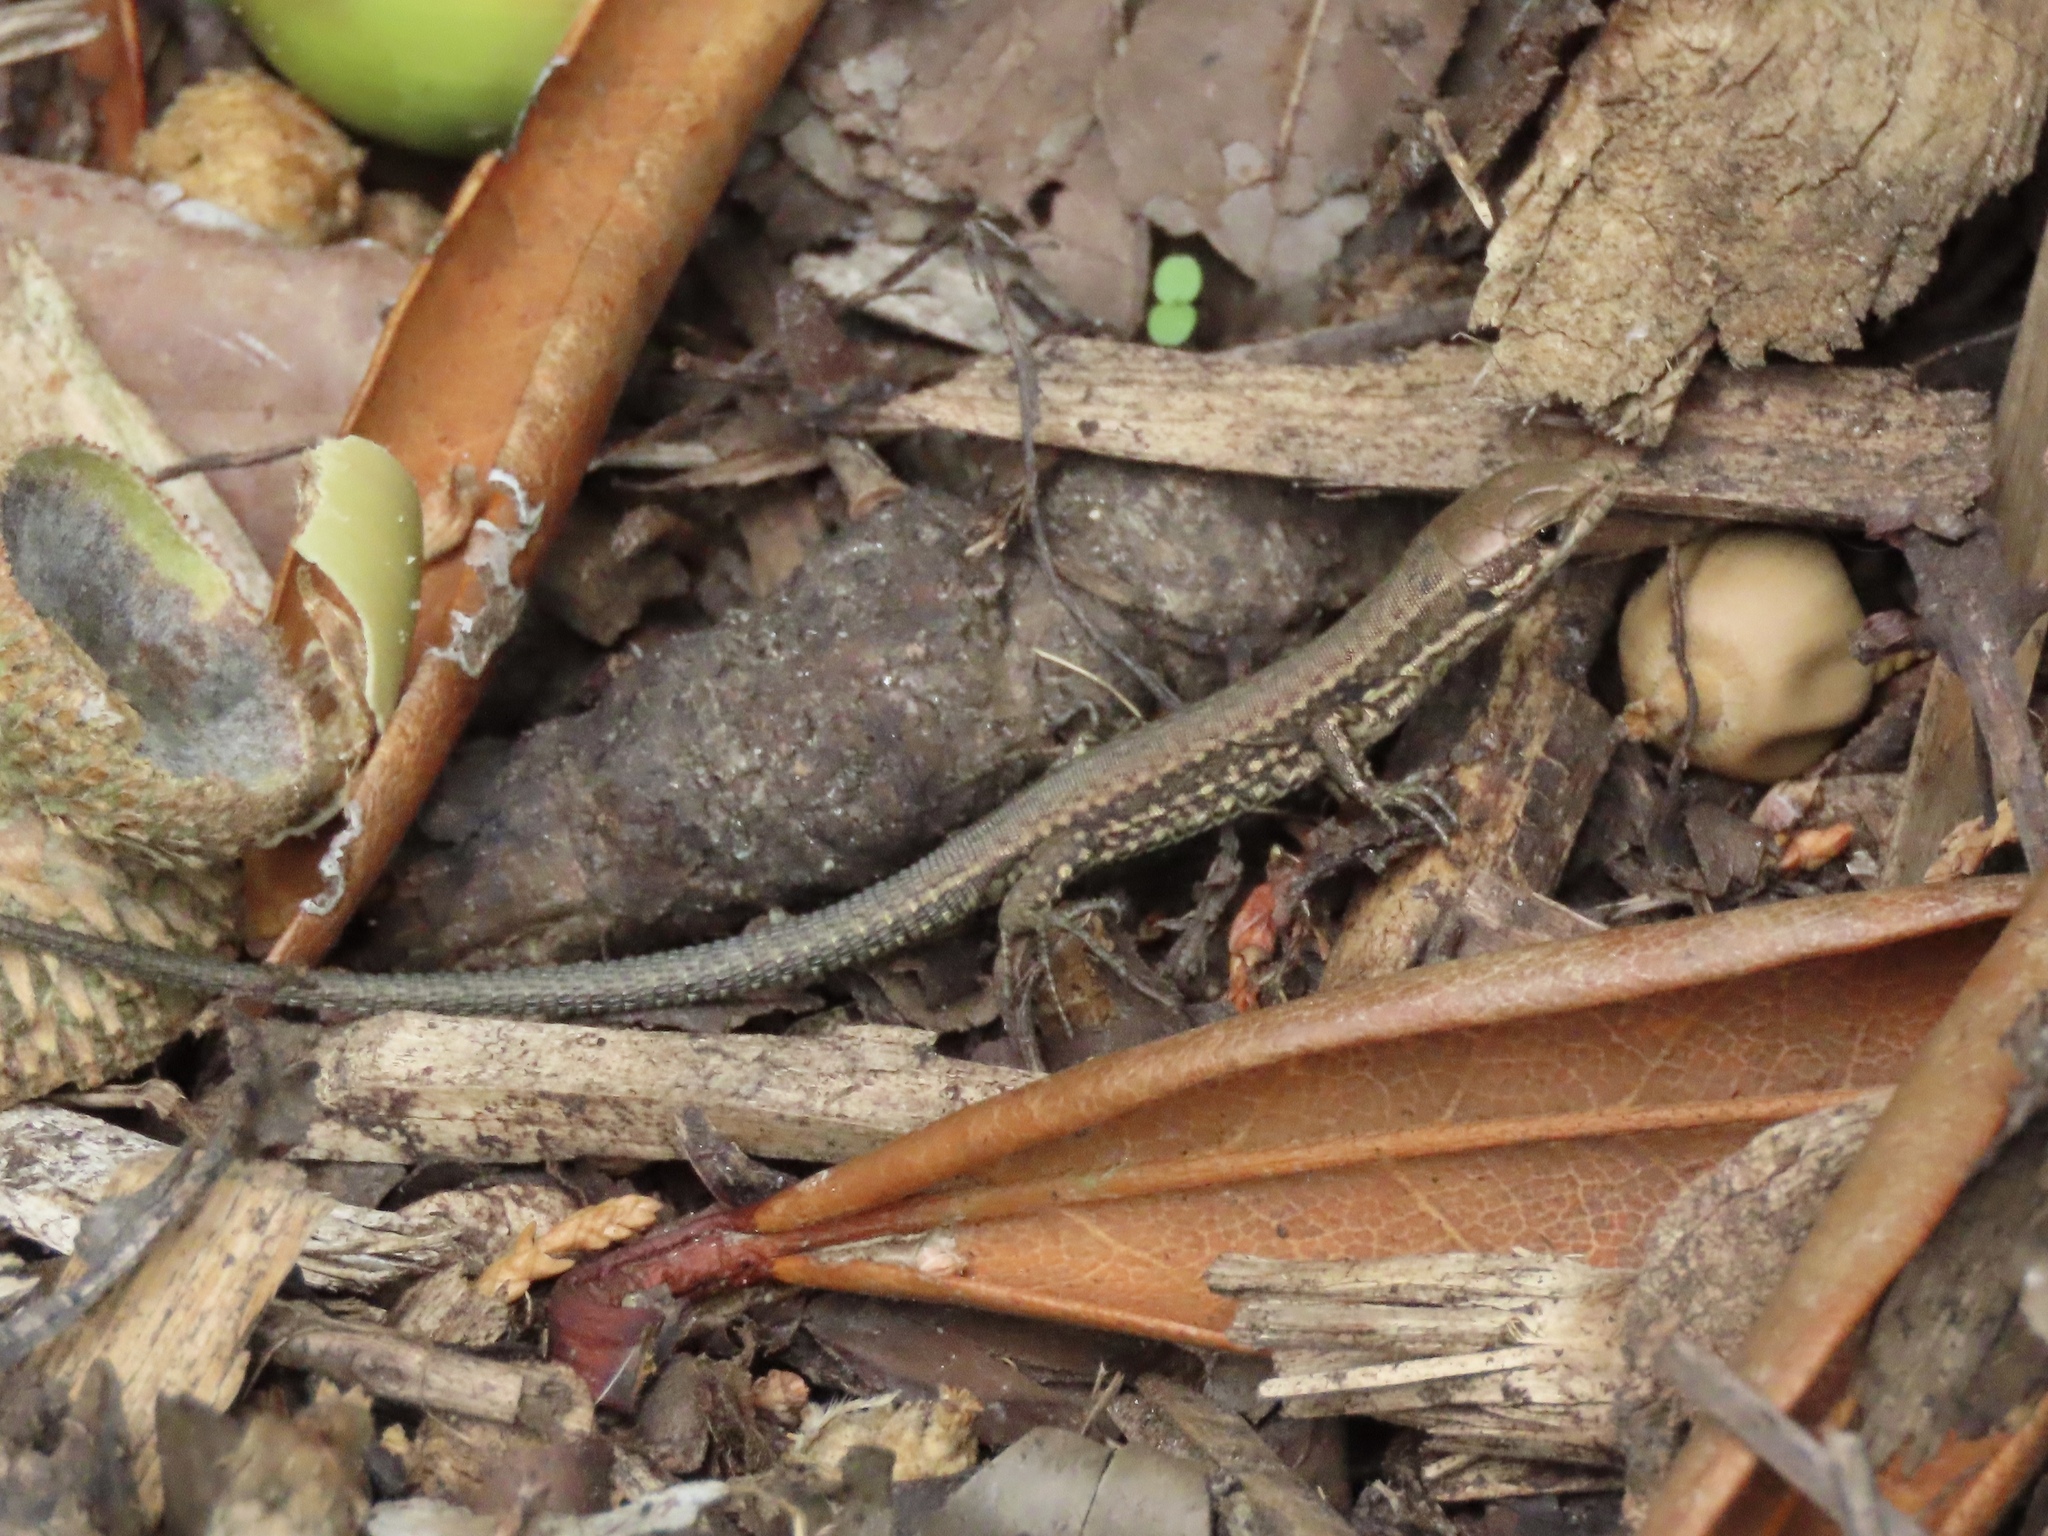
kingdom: Animalia
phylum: Chordata
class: Squamata
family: Lacertidae
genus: Podarcis
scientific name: Podarcis muralis
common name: Common wall lizard
